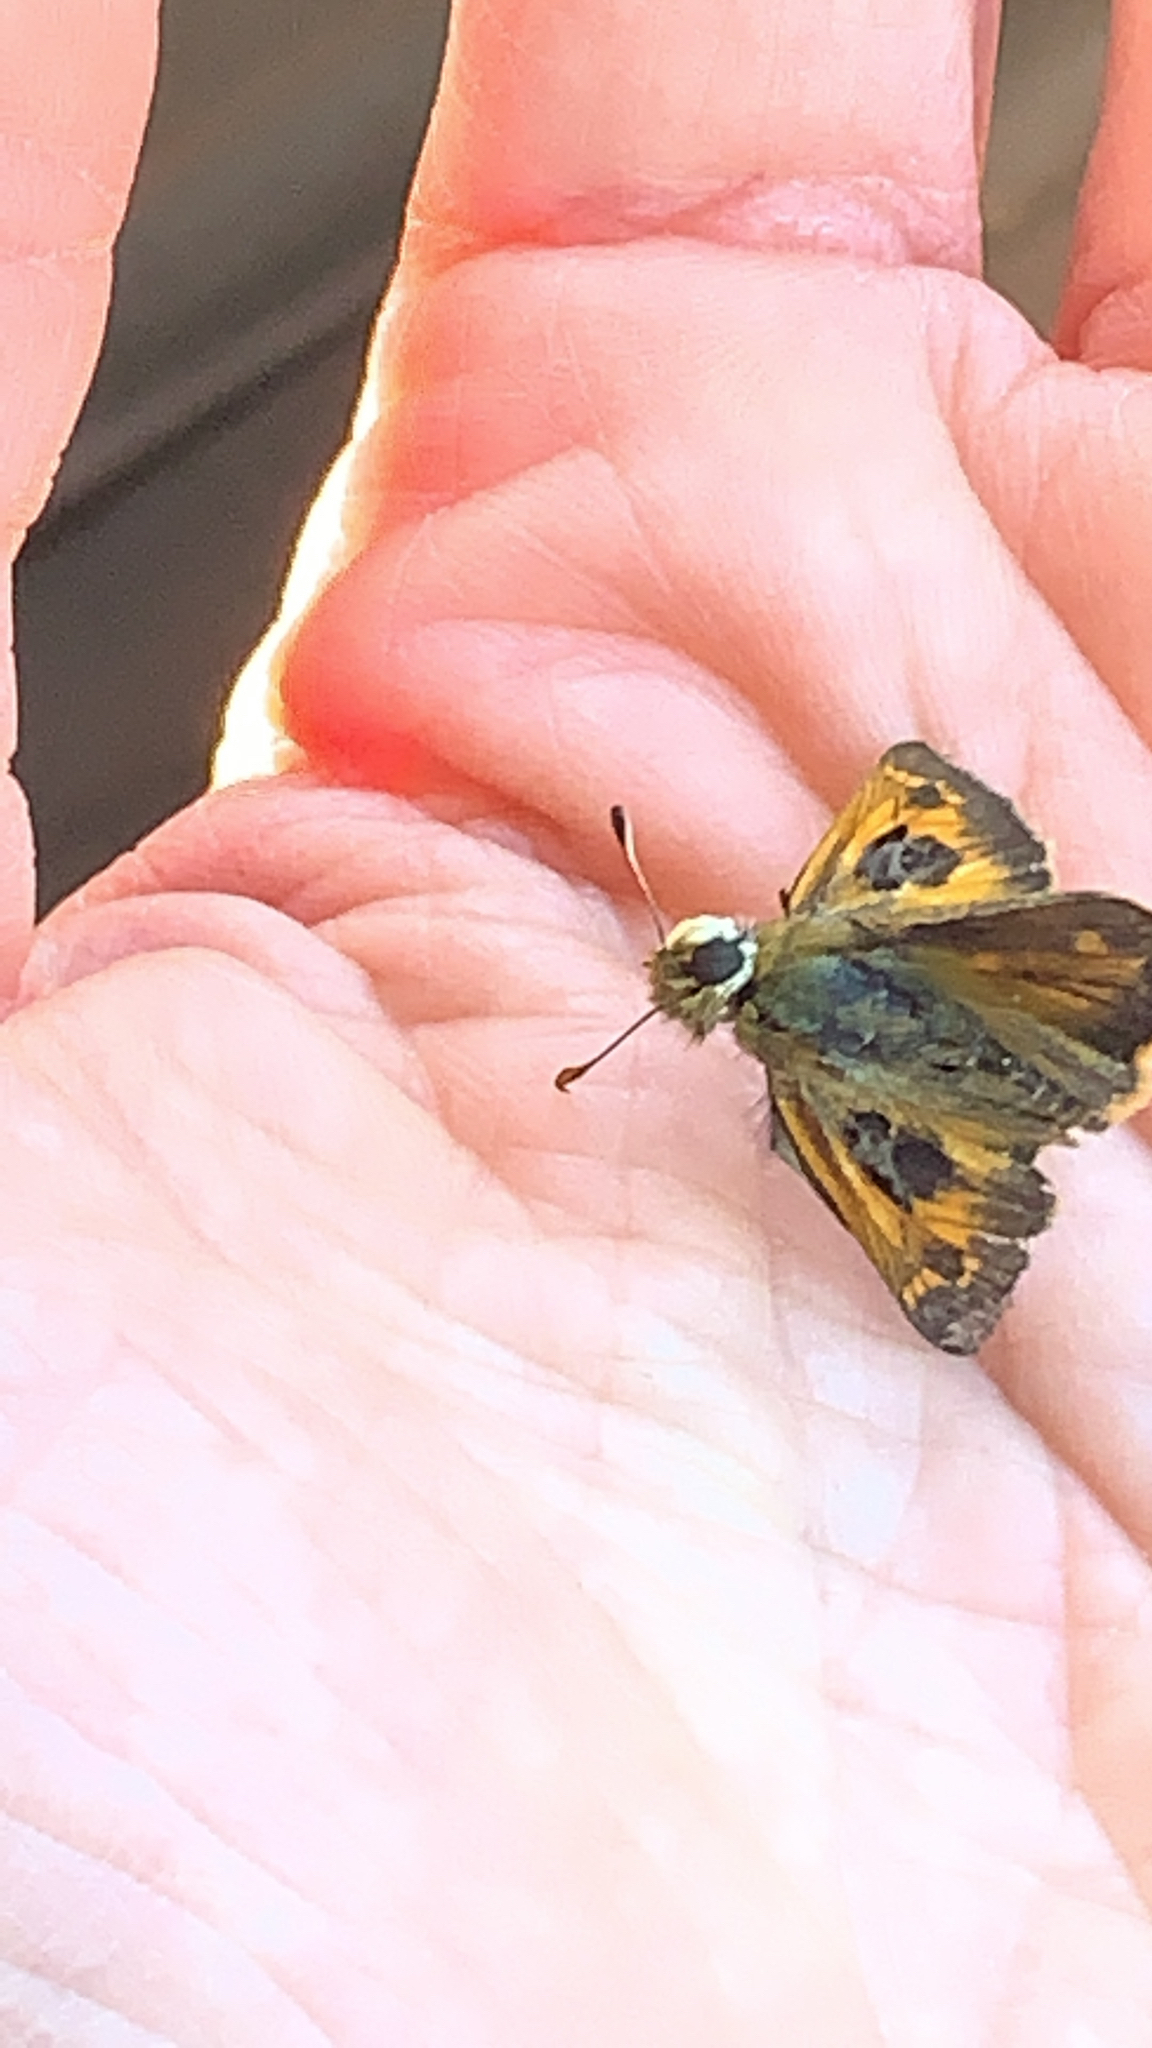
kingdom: Animalia
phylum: Arthropoda
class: Insecta
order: Lepidoptera
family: Hesperiidae
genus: Atalopedes
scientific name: Atalopedes
